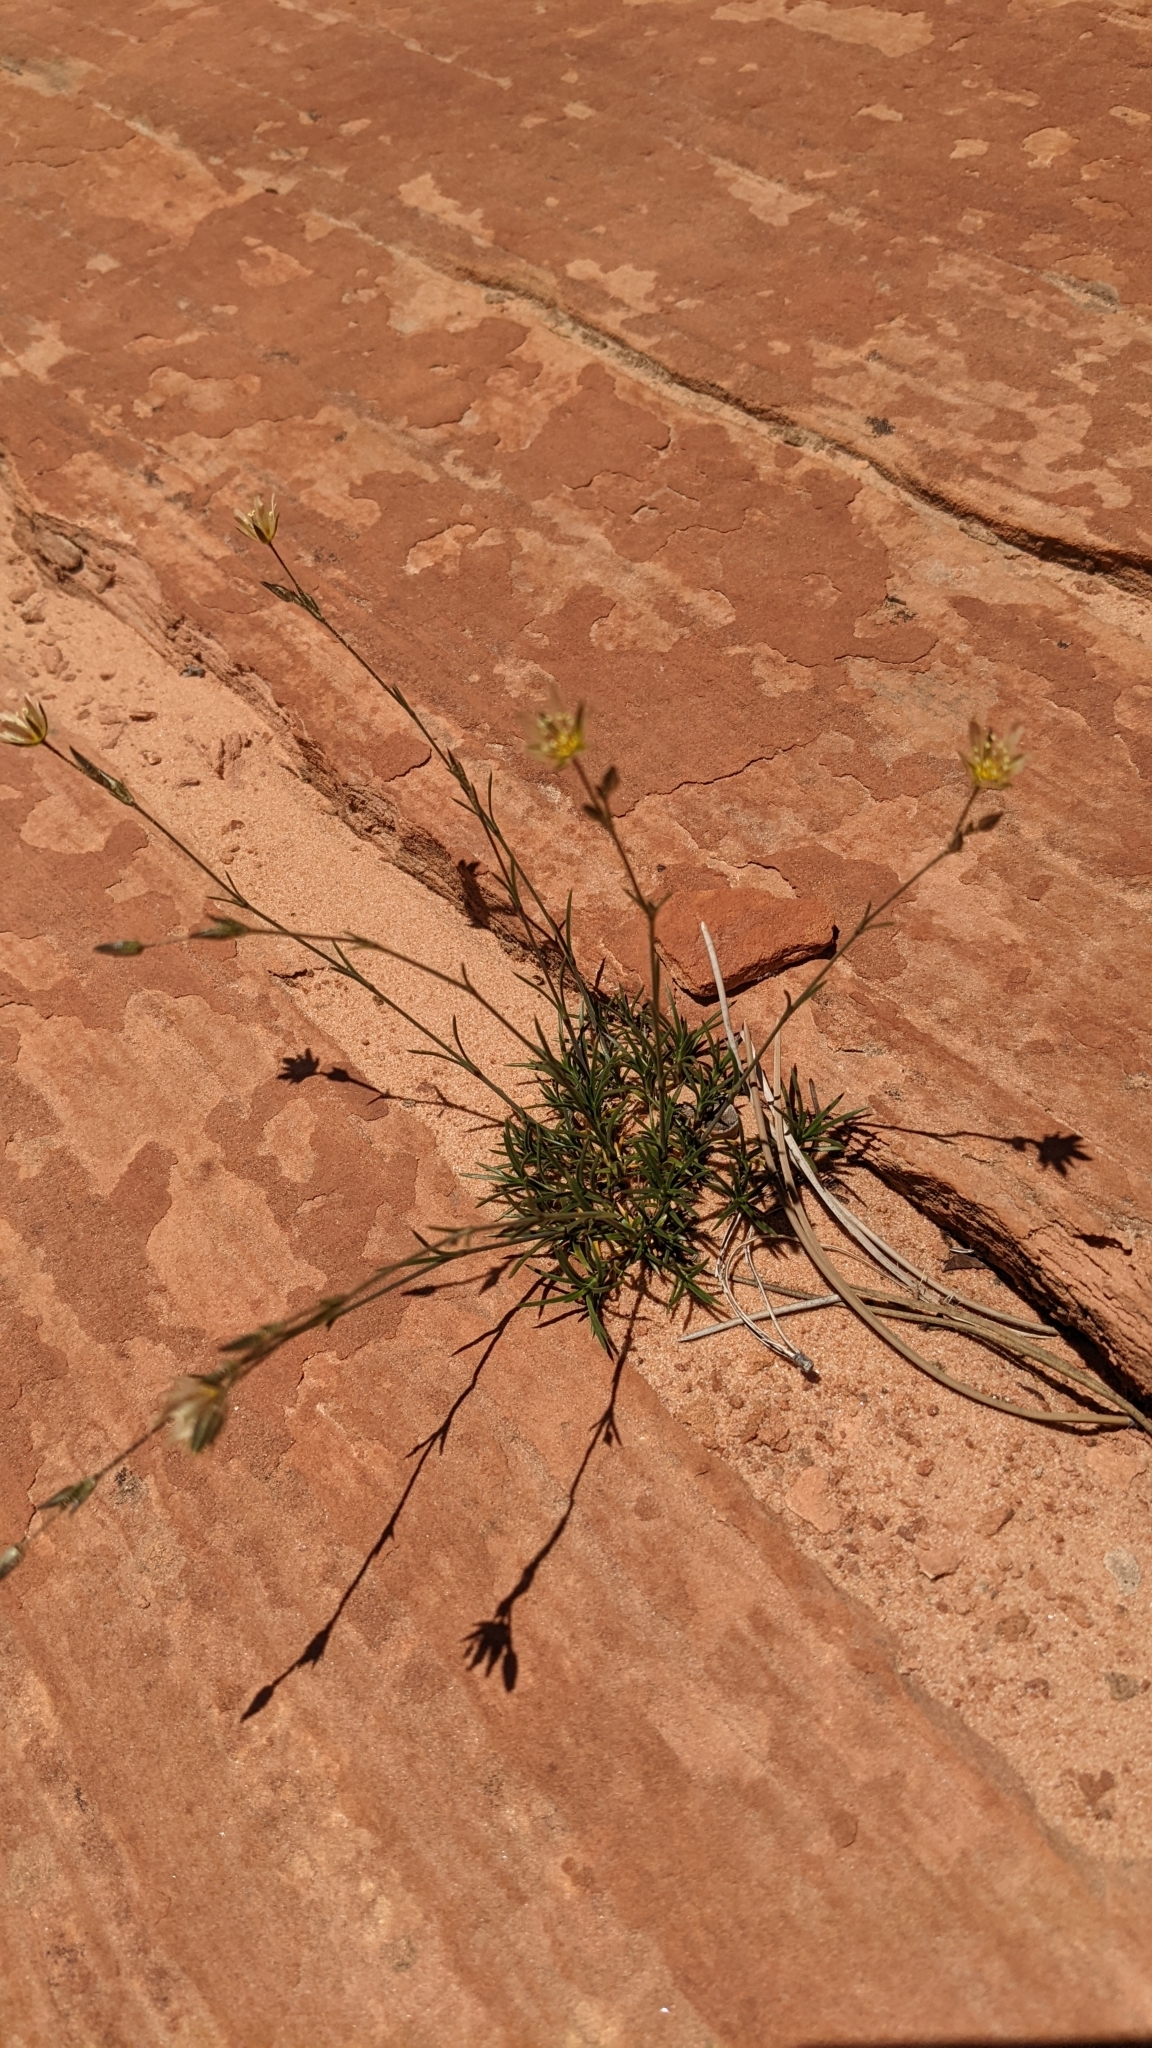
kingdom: Plantae
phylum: Tracheophyta
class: Magnoliopsida
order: Caryophyllales
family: Caryophyllaceae
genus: Eremogone
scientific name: Eremogone macradenia
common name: Mohave sandwort
